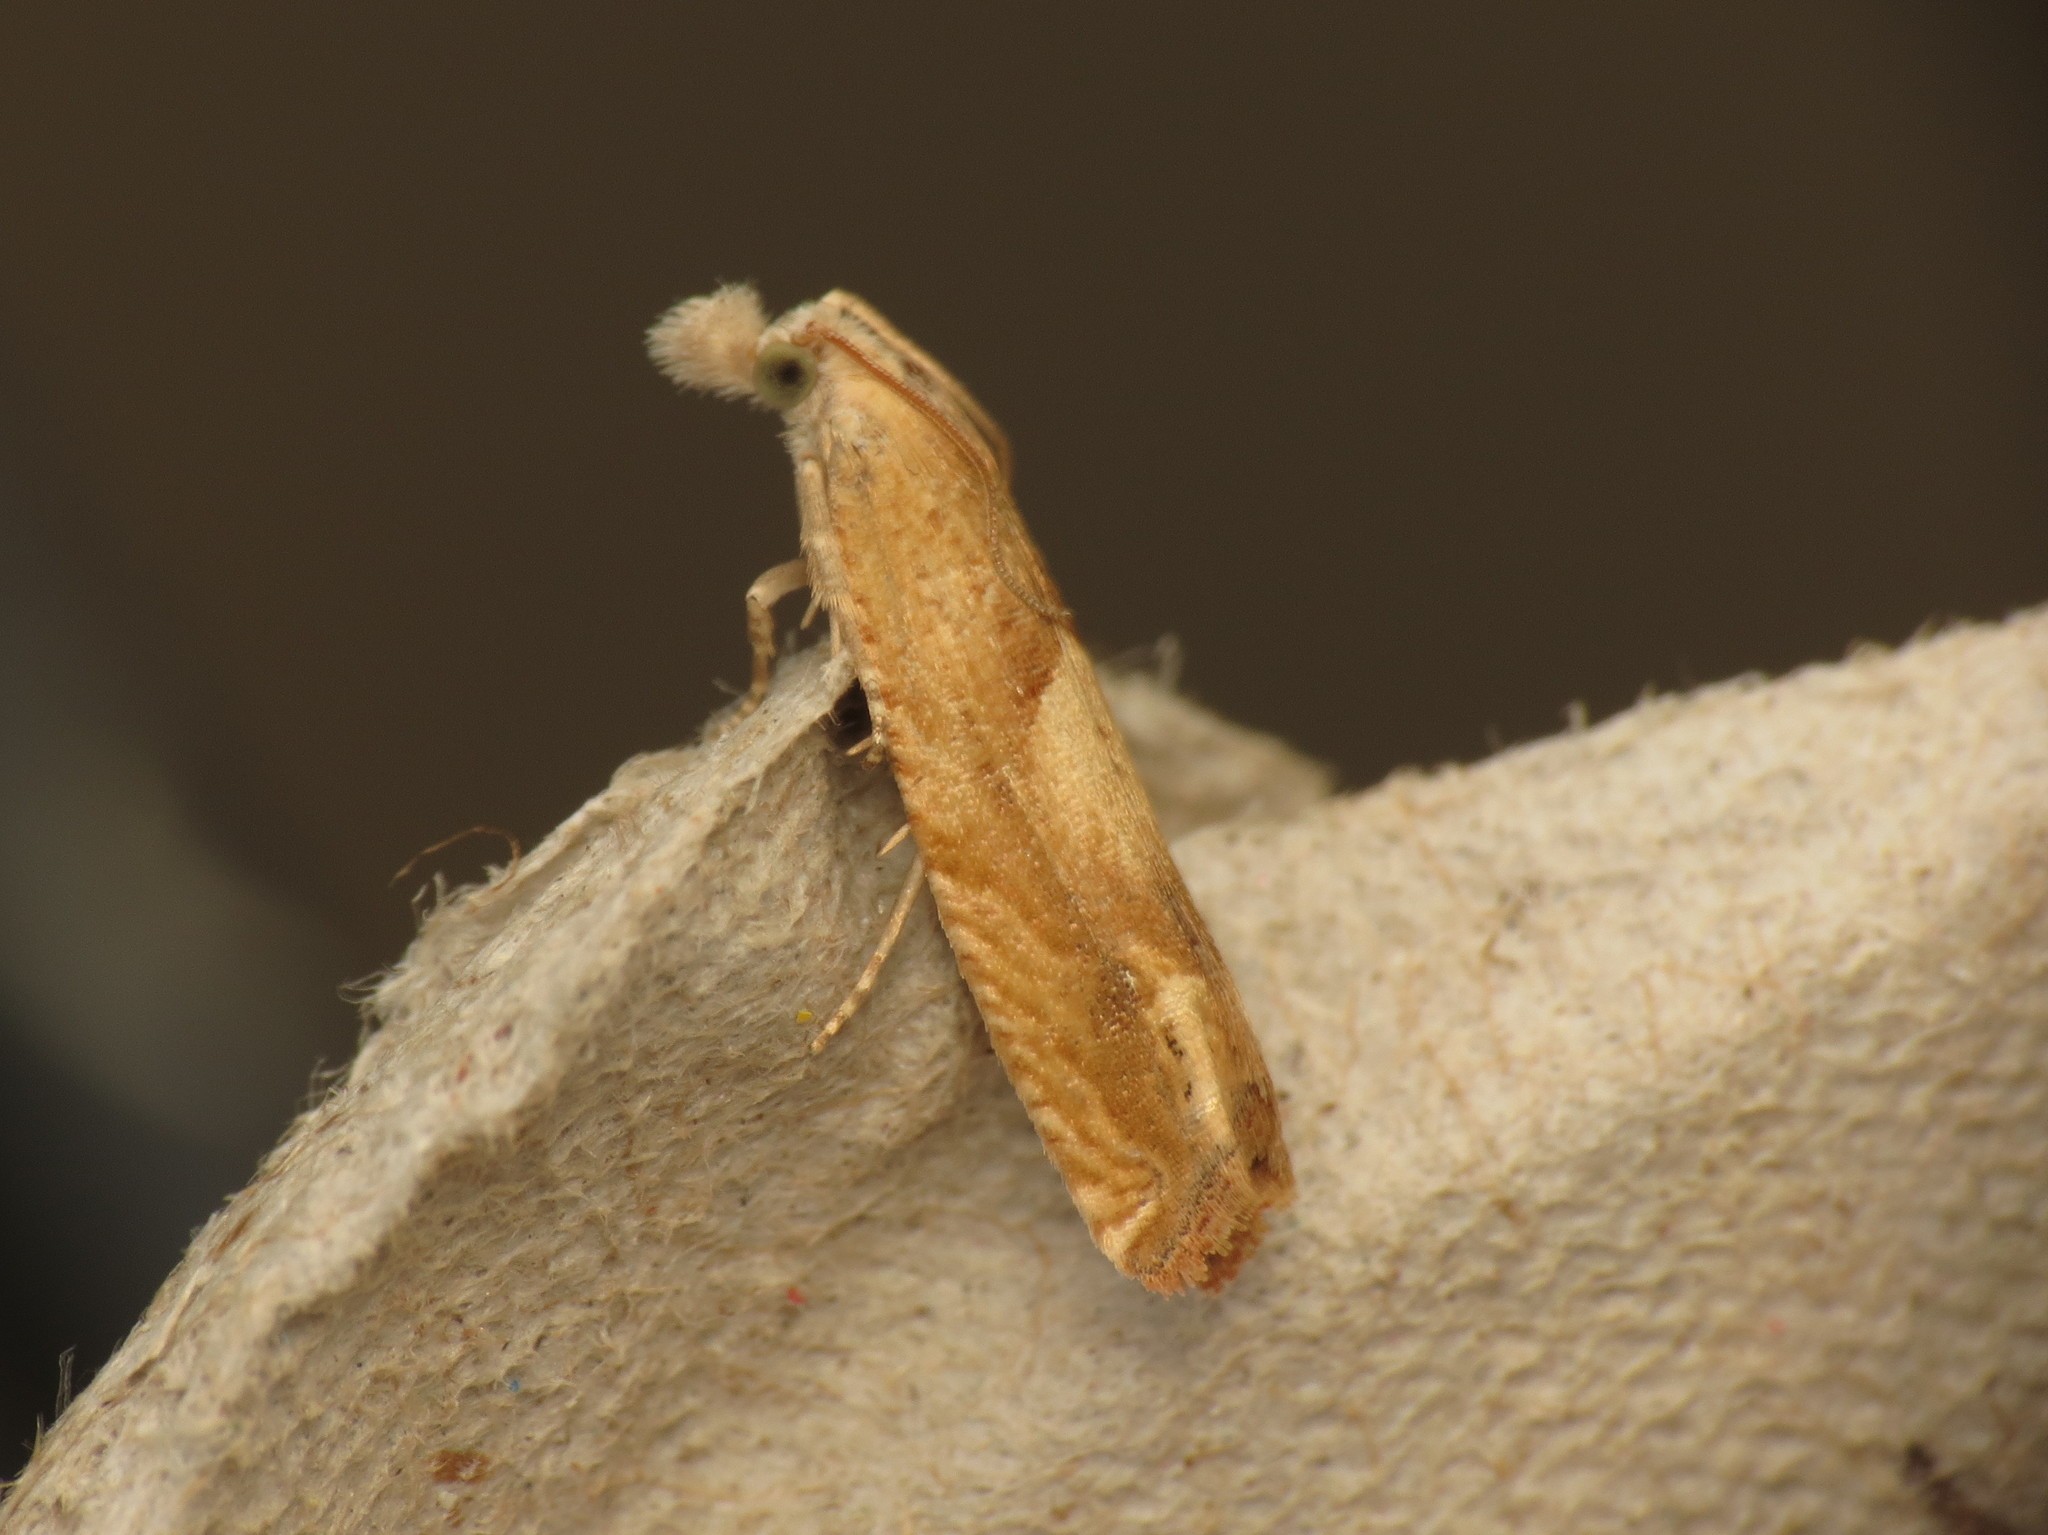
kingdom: Animalia
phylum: Arthropoda
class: Insecta
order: Lepidoptera
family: Tortricidae
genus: Eucosma
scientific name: Eucosma hohenwartiana
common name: Bright bell
